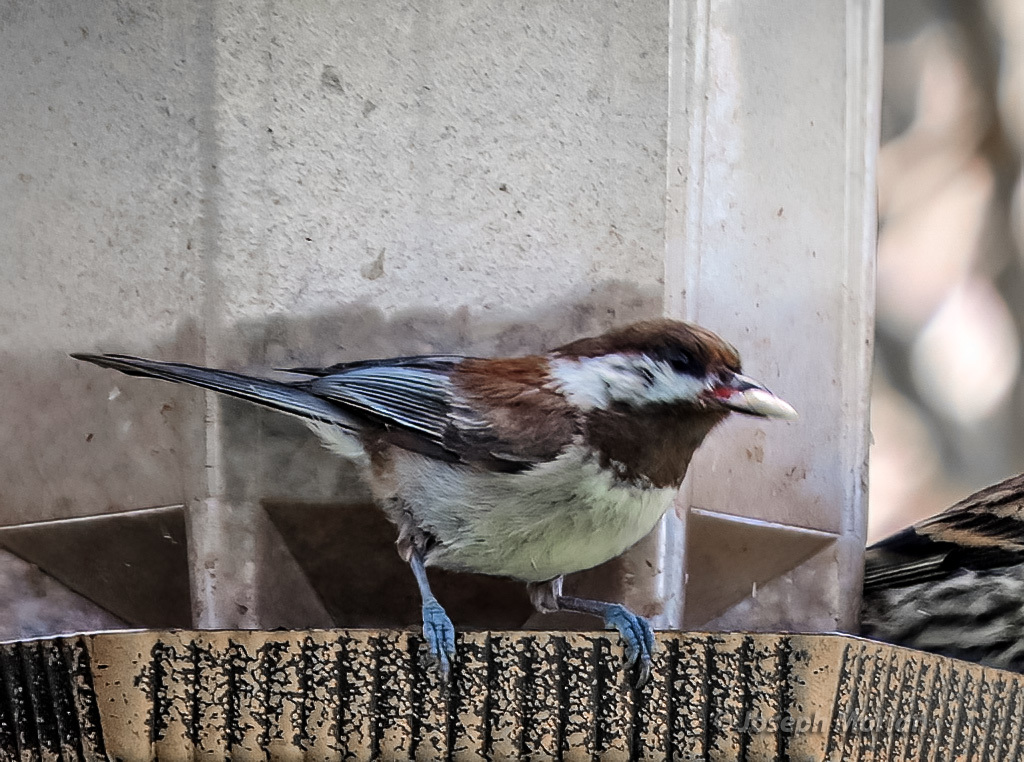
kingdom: Animalia
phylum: Chordata
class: Aves
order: Passeriformes
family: Paridae
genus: Poecile
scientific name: Poecile rufescens
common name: Chestnut-backed chickadee
